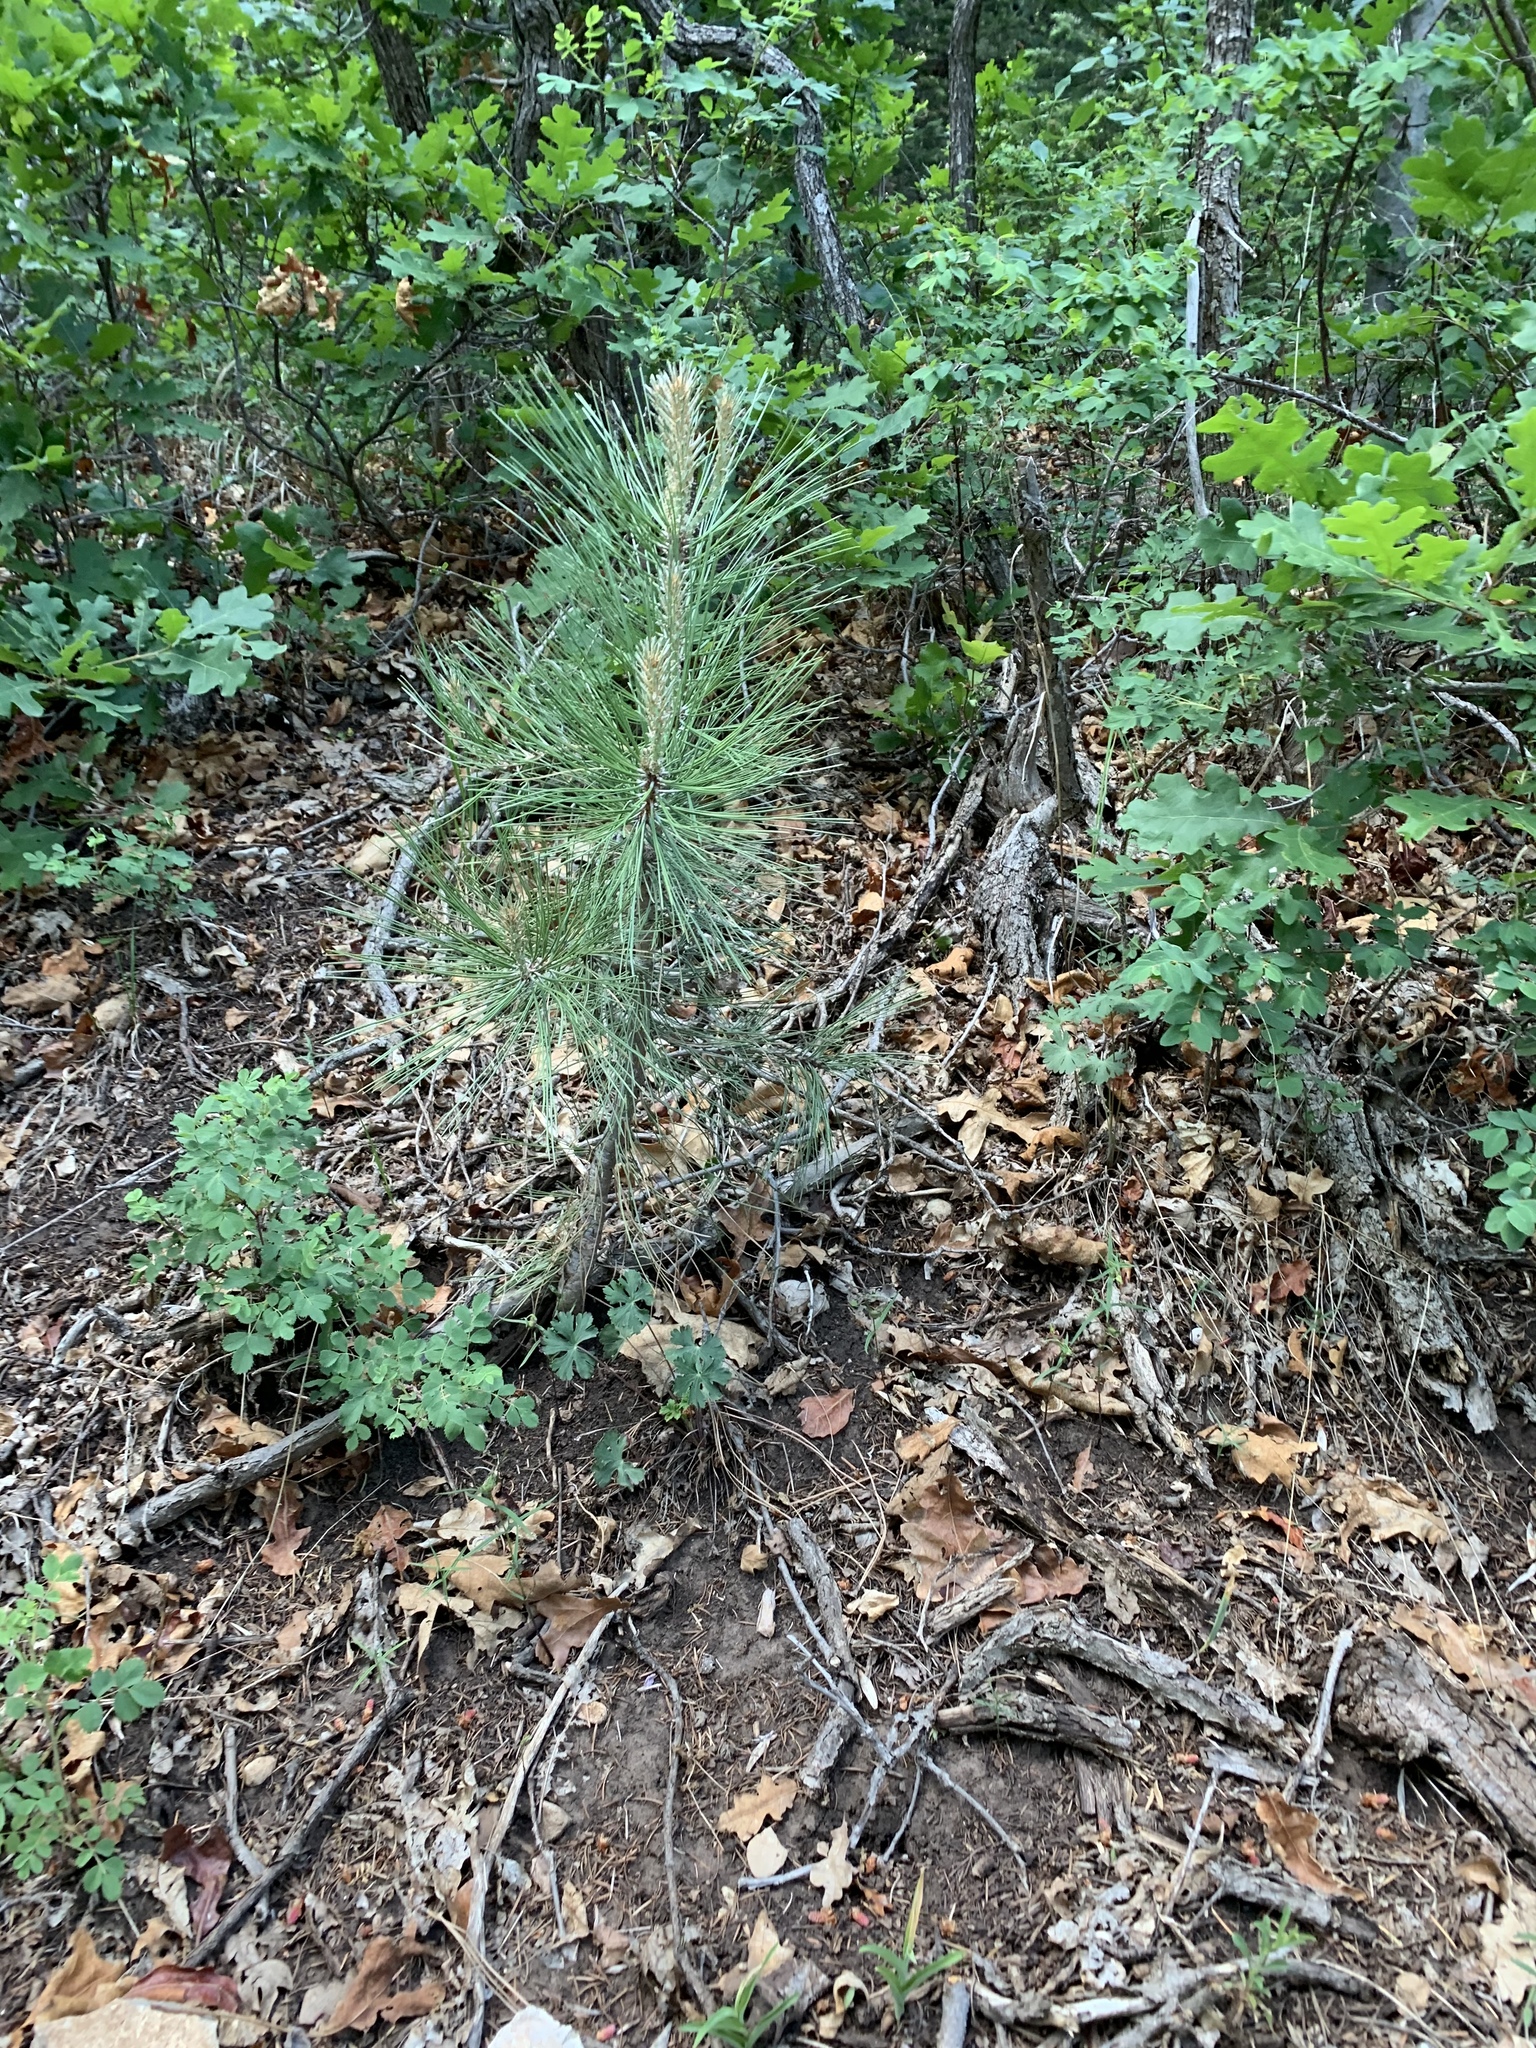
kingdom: Plantae
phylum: Tracheophyta
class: Pinopsida
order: Pinales
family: Pinaceae
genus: Pinus
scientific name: Pinus ponderosa
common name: Western yellow-pine
